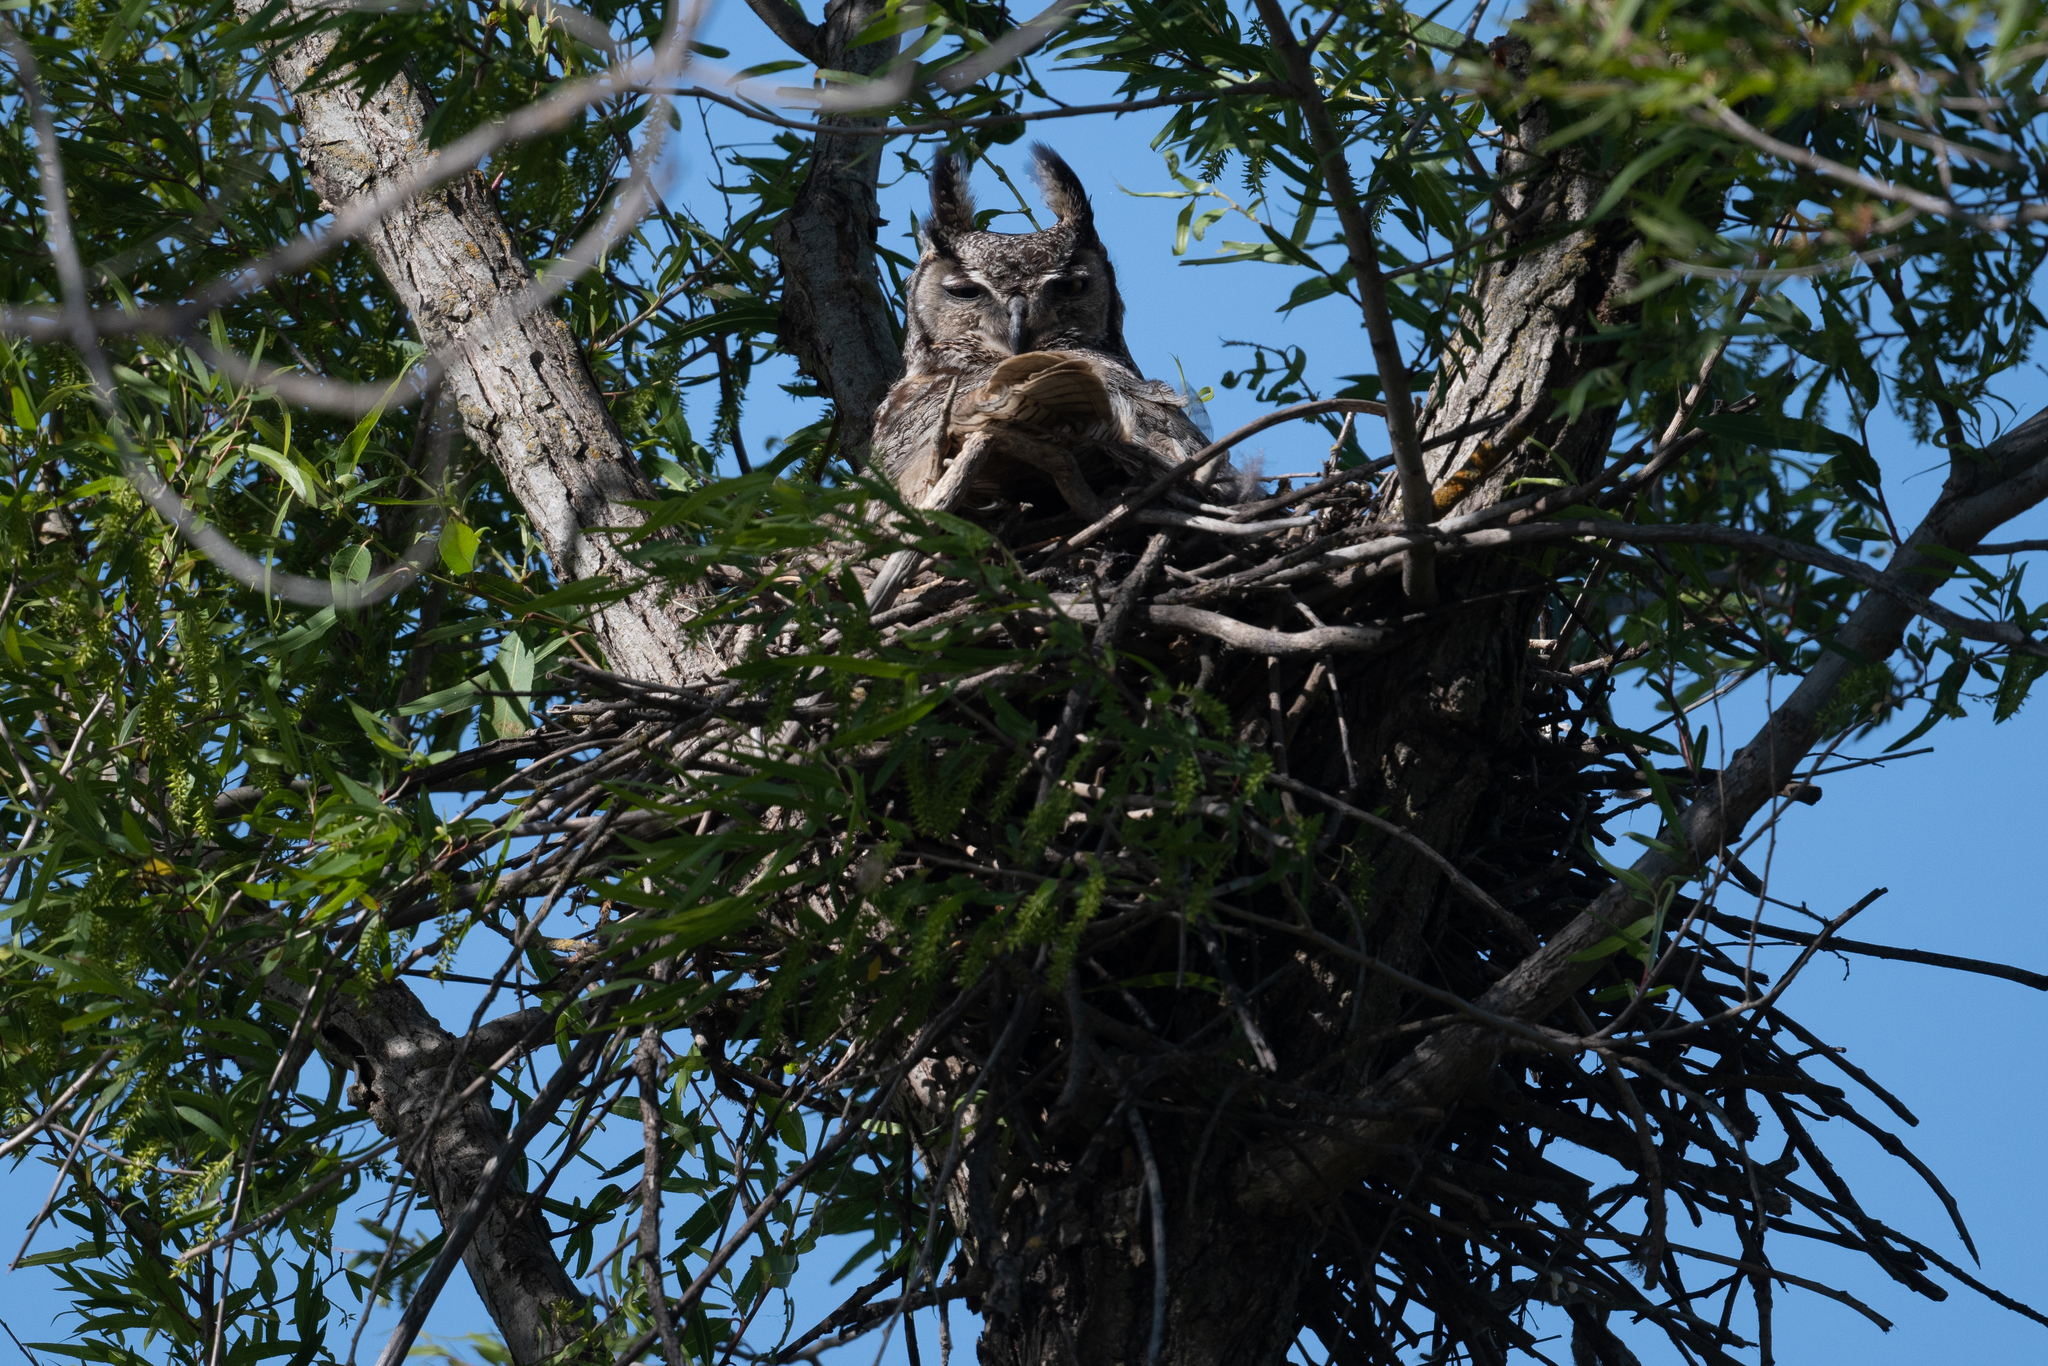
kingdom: Animalia
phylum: Chordata
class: Aves
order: Strigiformes
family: Strigidae
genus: Bubo
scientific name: Bubo virginianus
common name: Great horned owl
